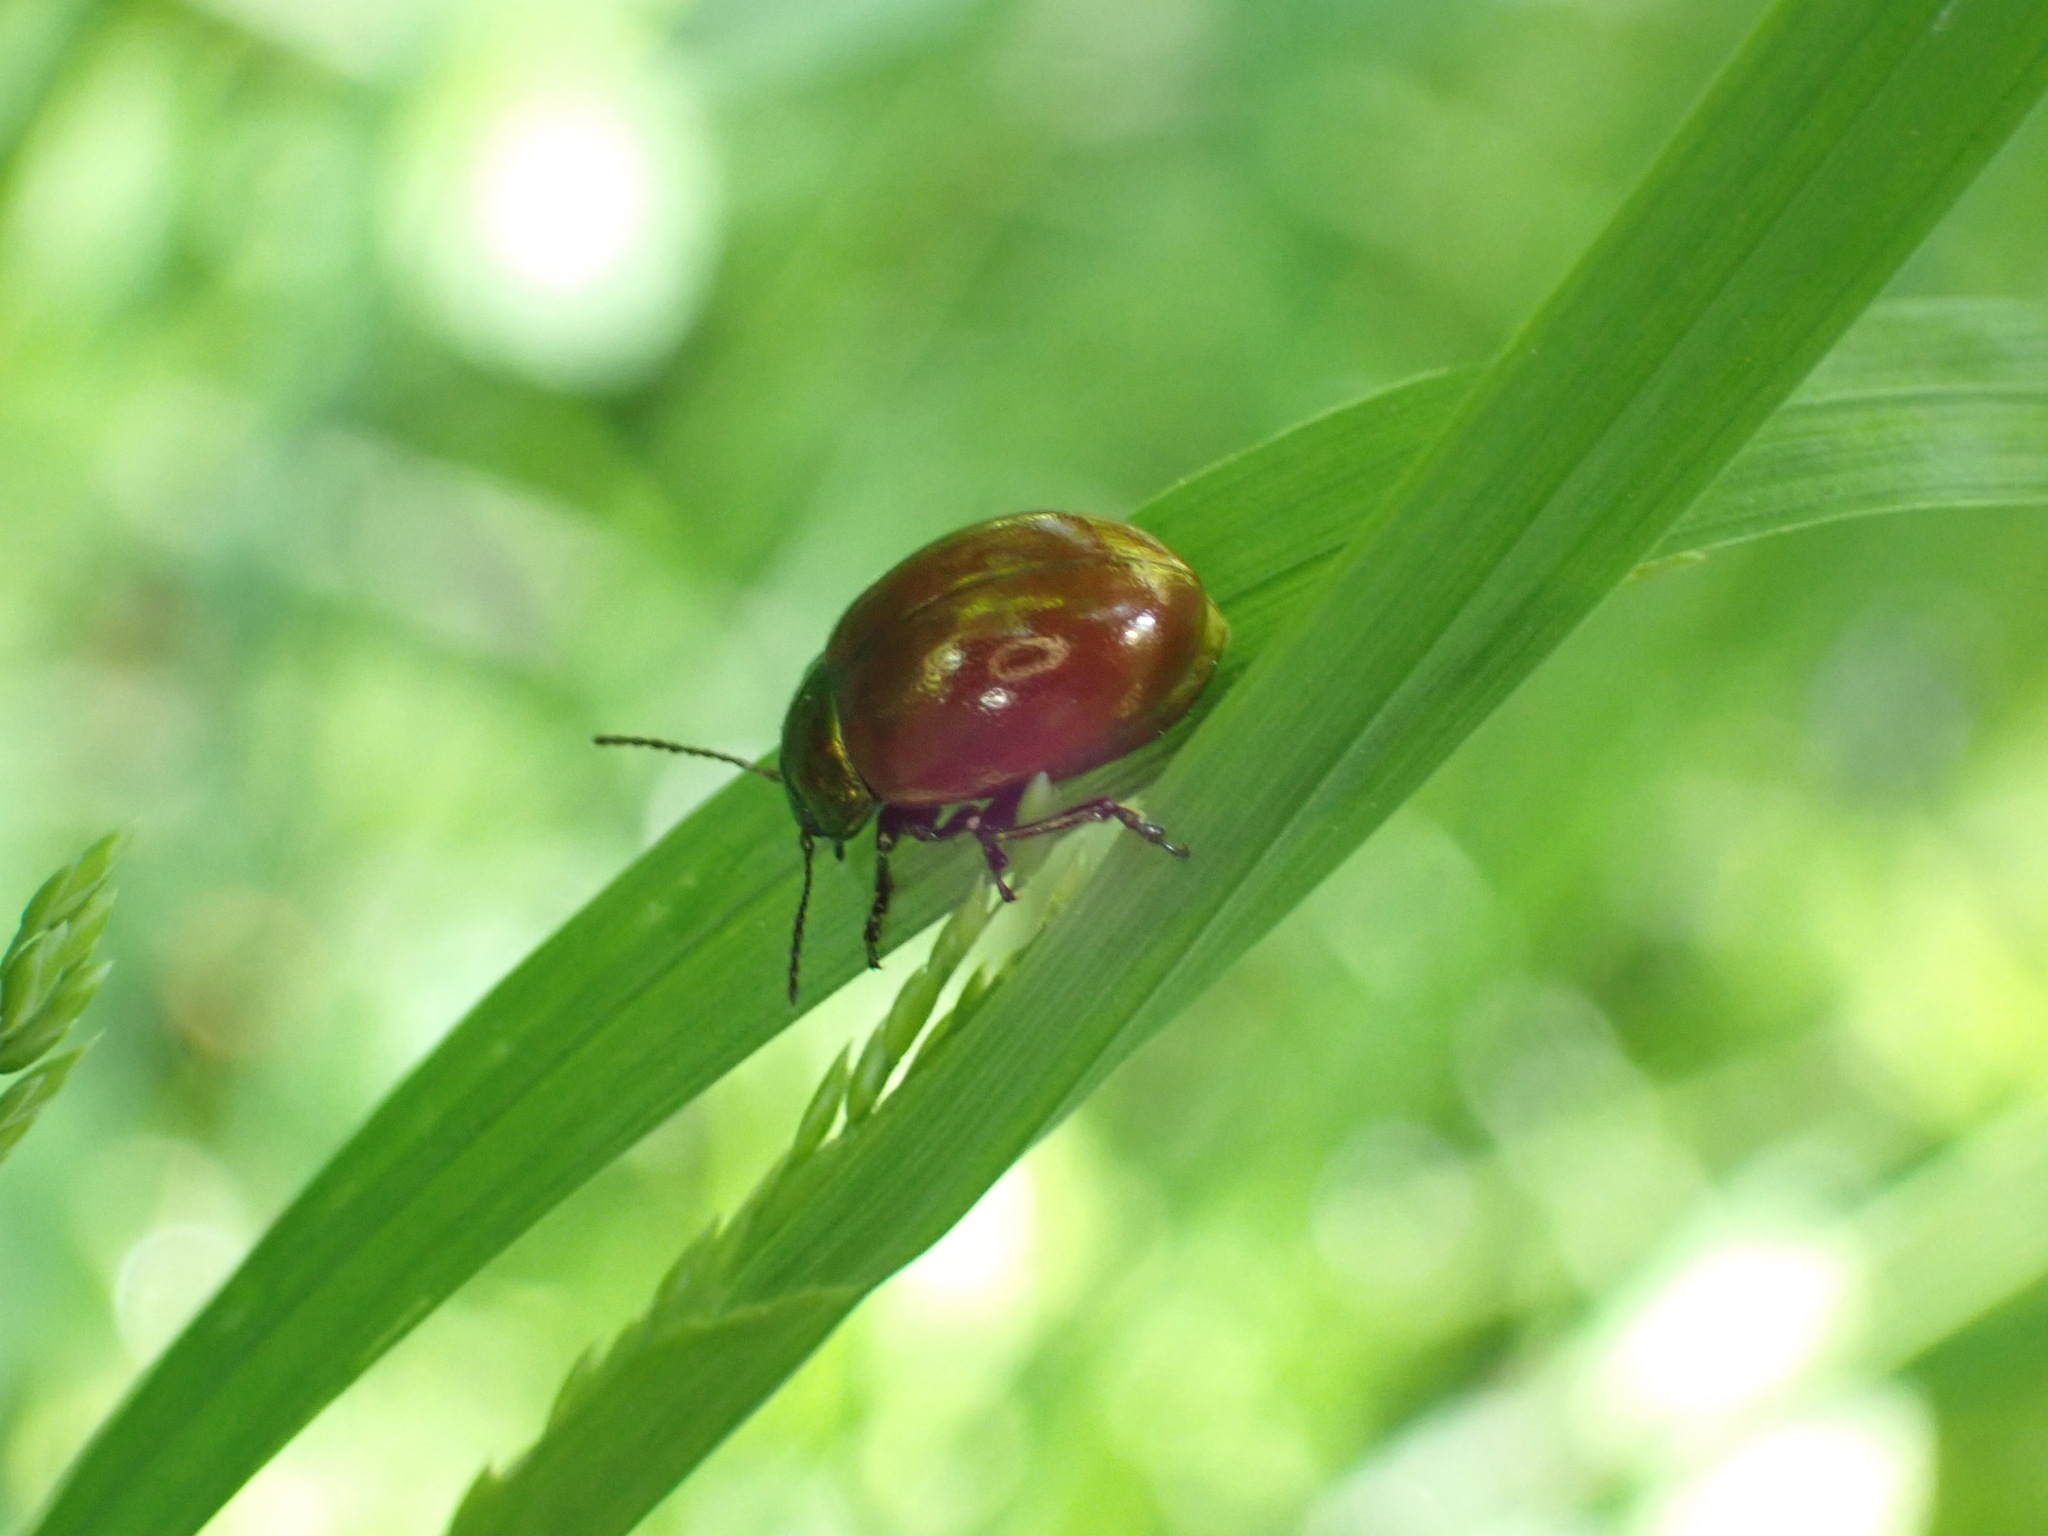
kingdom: Animalia
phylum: Arthropoda
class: Insecta
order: Coleoptera
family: Chrysomelidae
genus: Chrysomela
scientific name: Chrysomela polita
